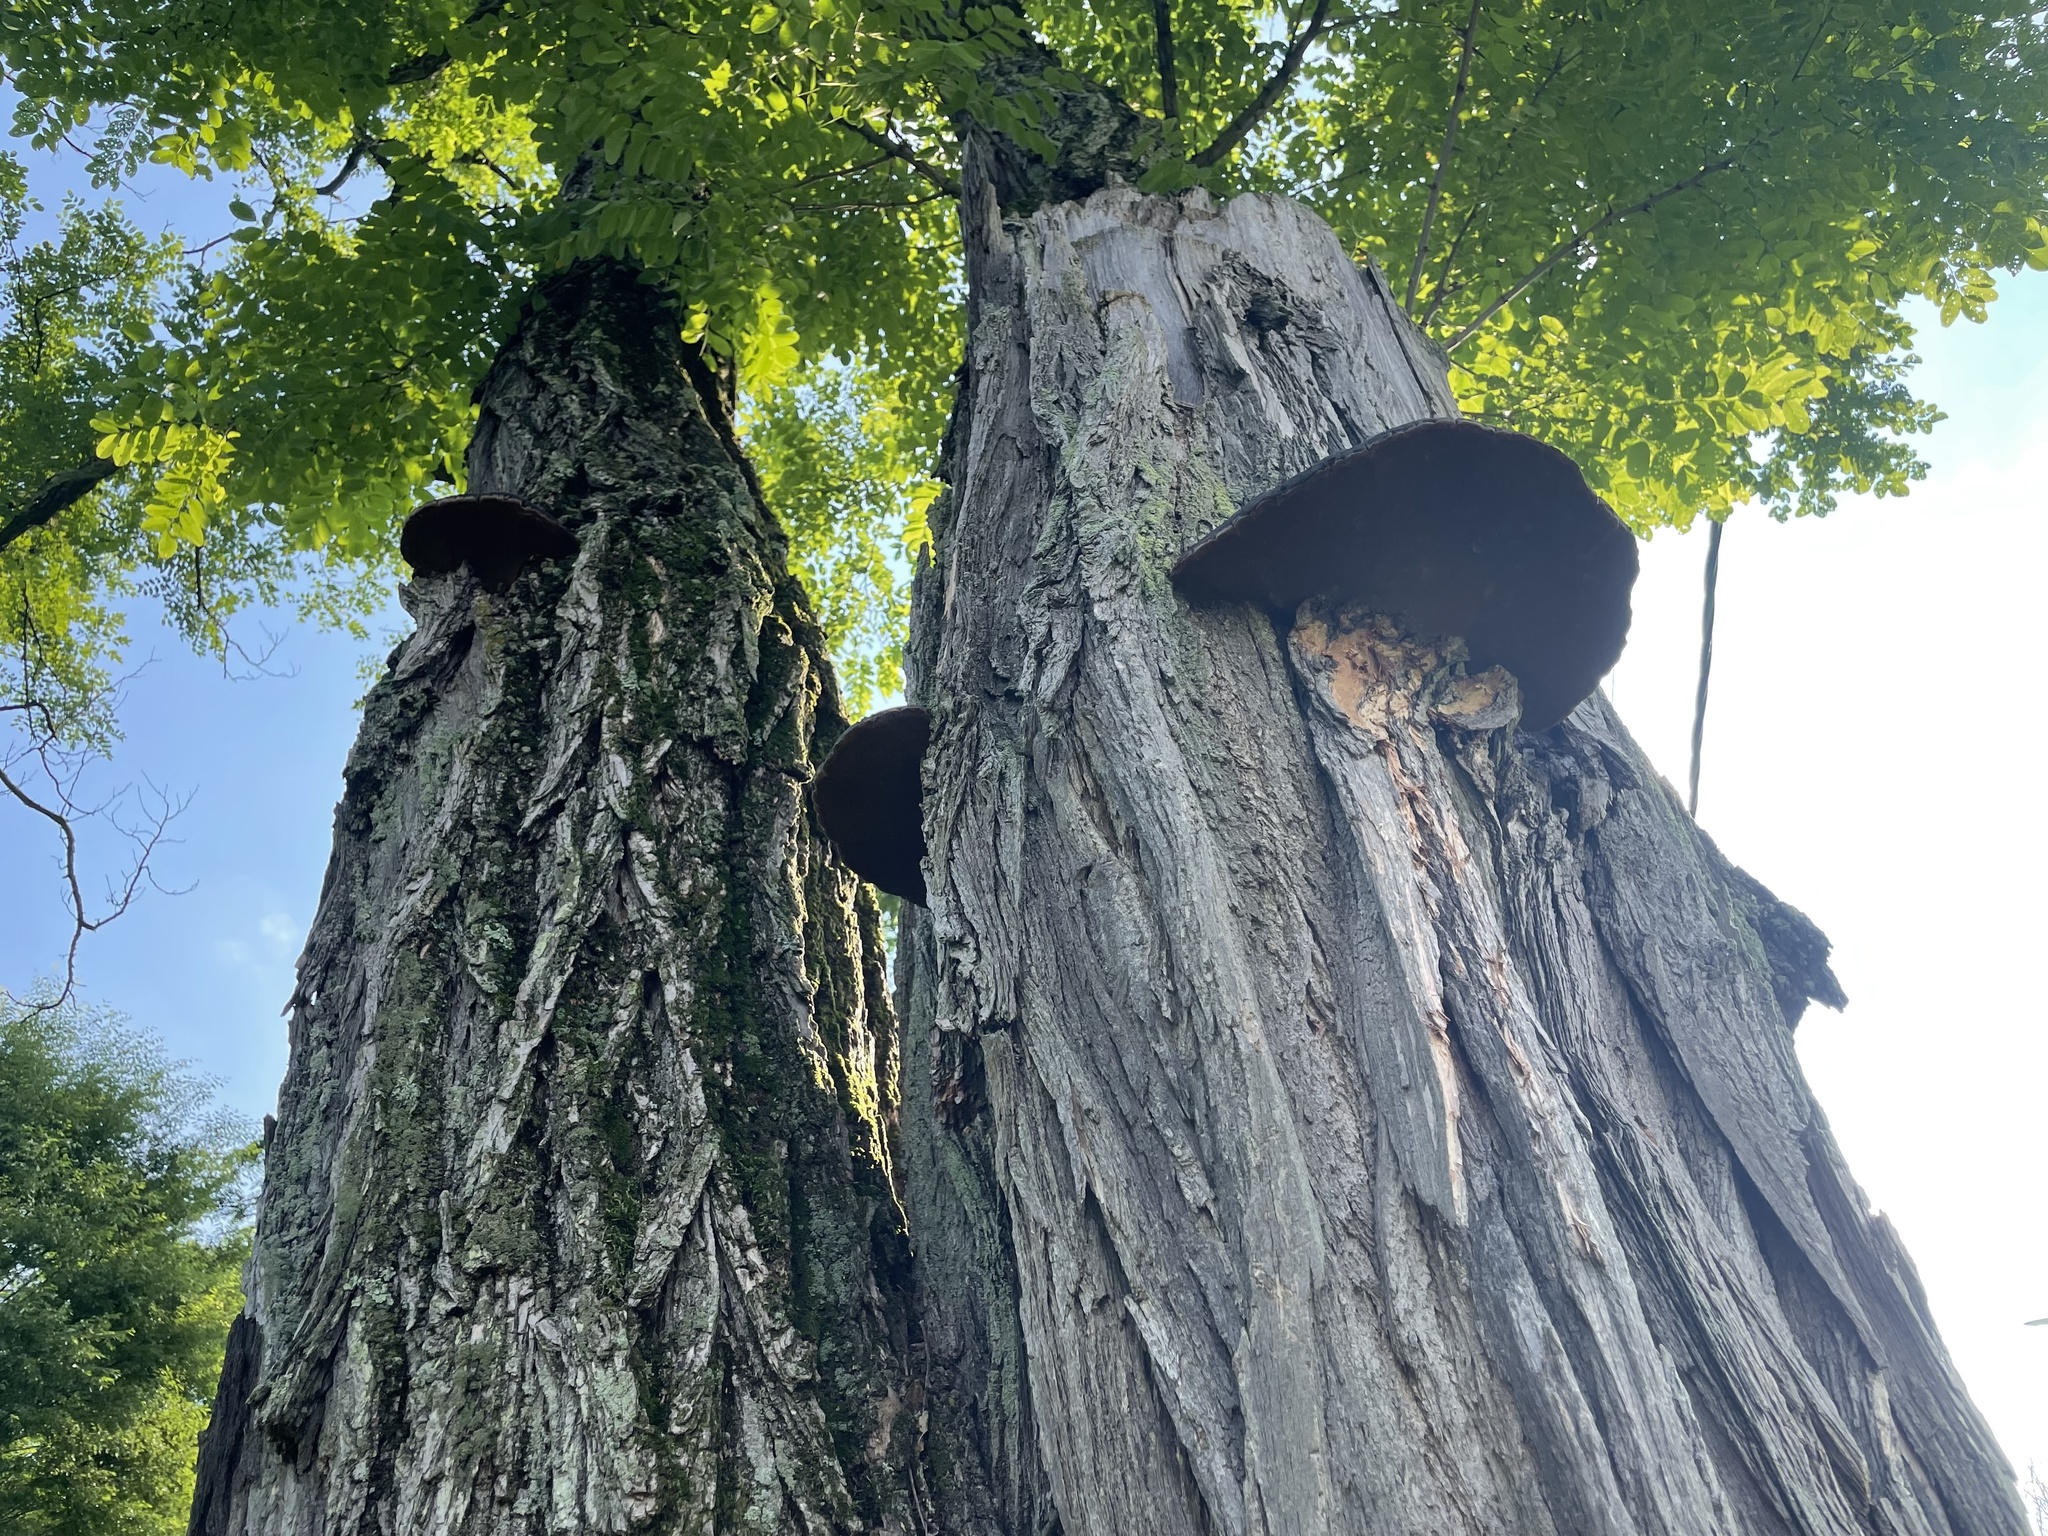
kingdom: Fungi
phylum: Basidiomycota
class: Agaricomycetes
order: Hymenochaetales
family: Hymenochaetaceae
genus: Phellinus
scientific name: Phellinus robiniae
